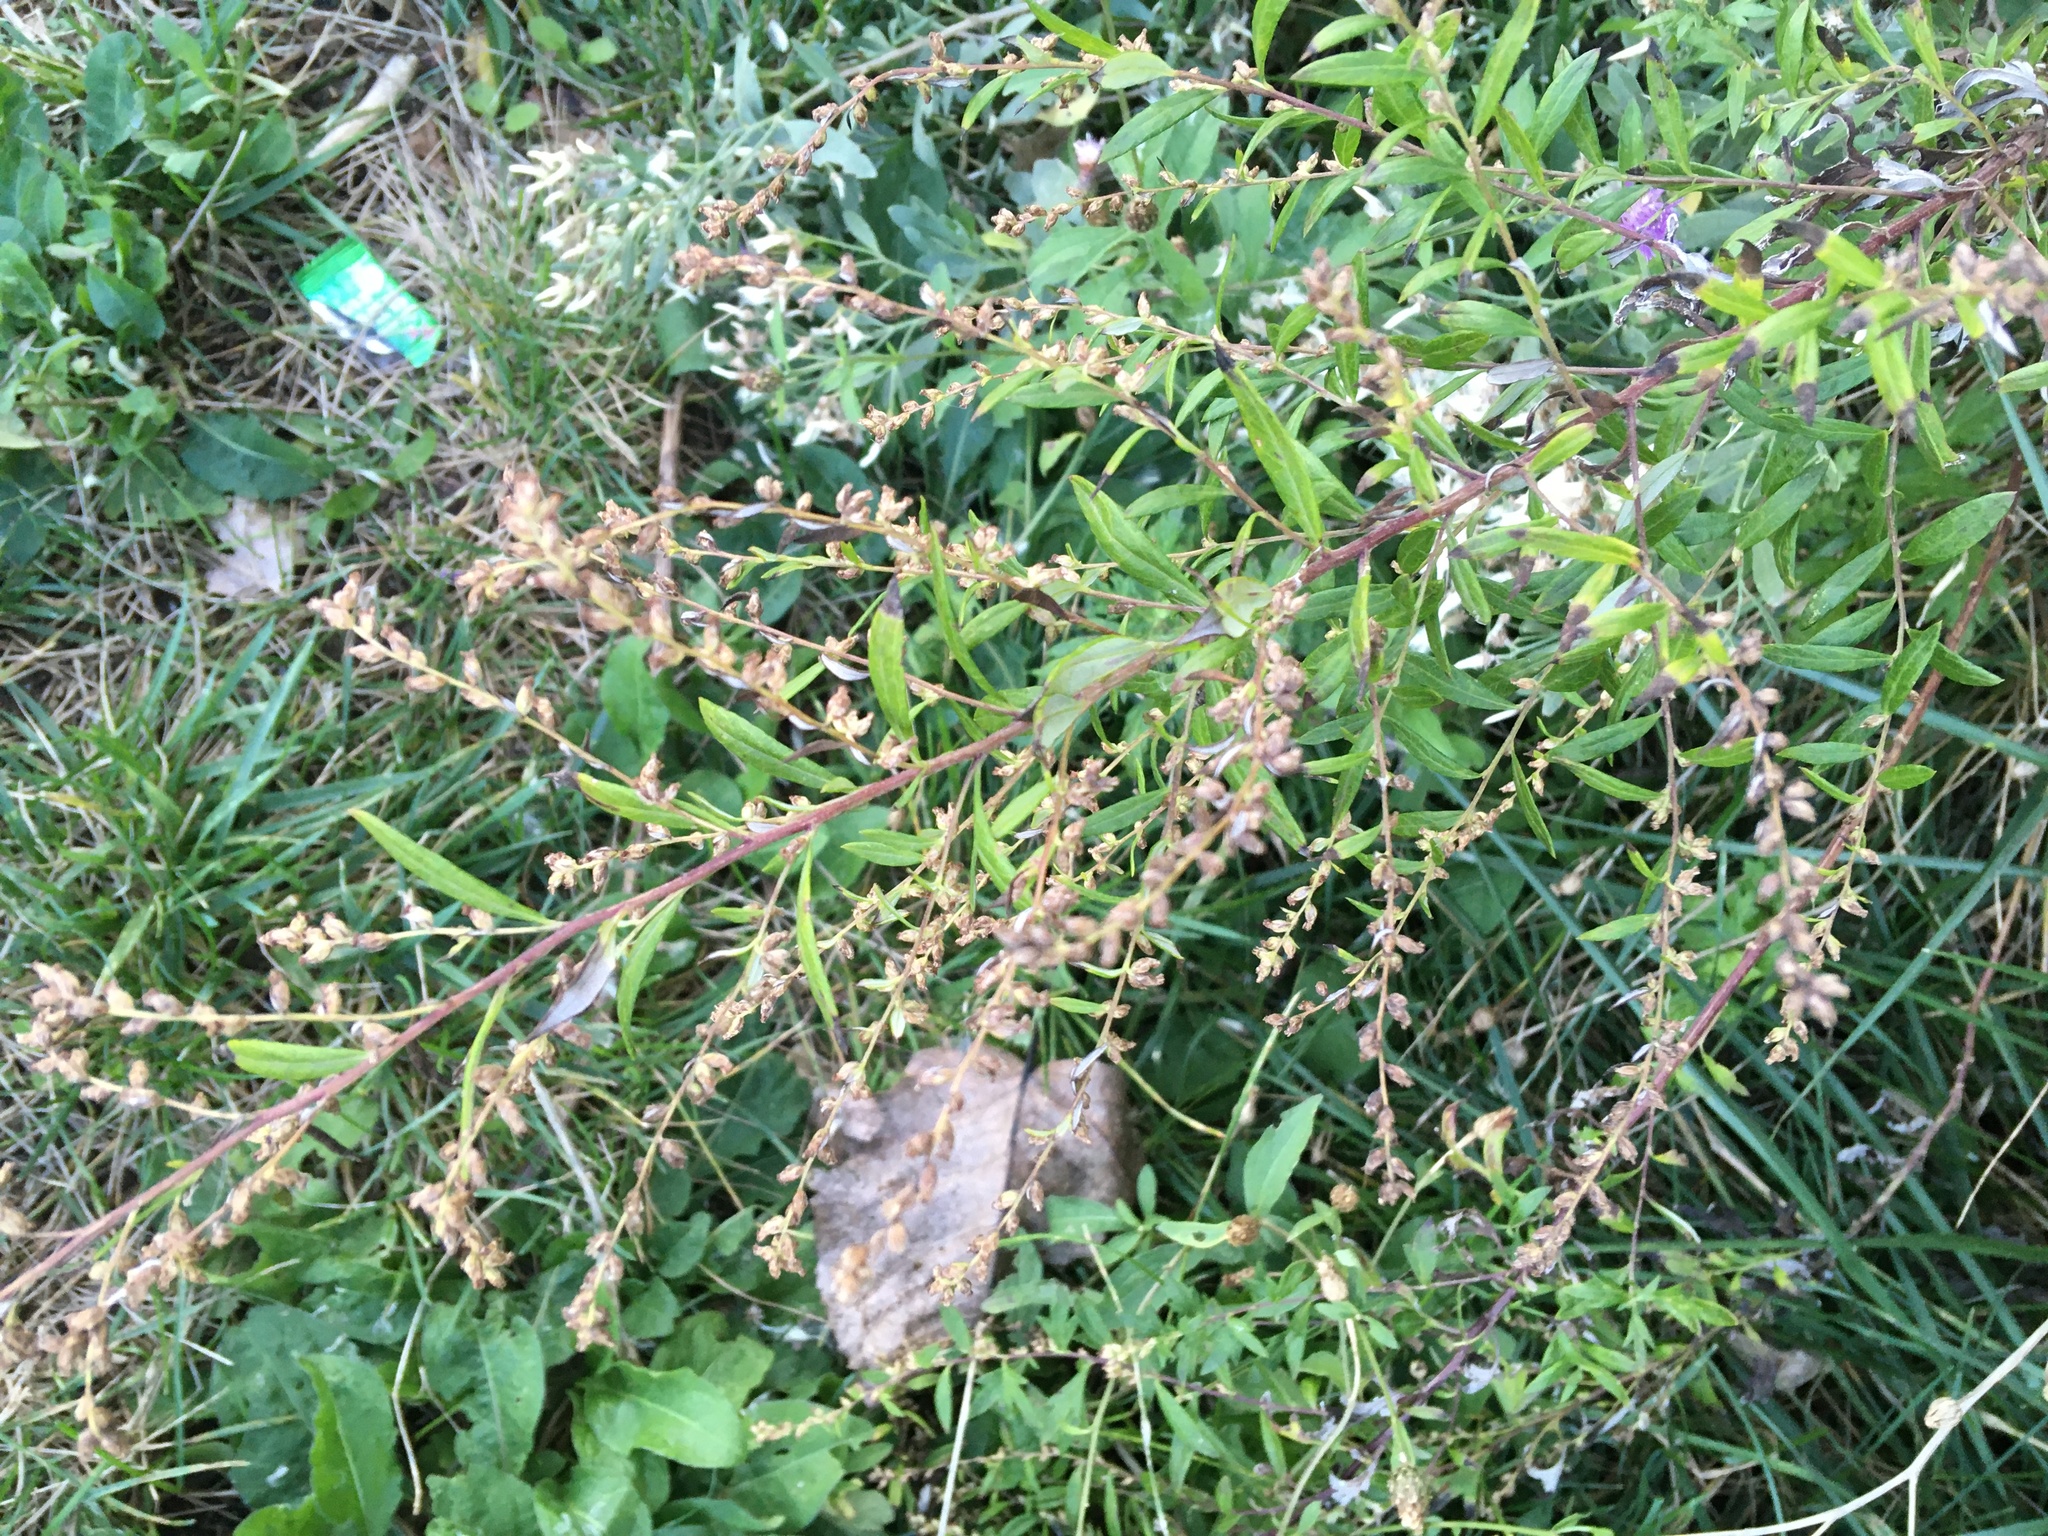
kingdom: Plantae
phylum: Tracheophyta
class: Magnoliopsida
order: Asterales
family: Asteraceae
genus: Artemisia
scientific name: Artemisia vulgaris
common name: Mugwort
